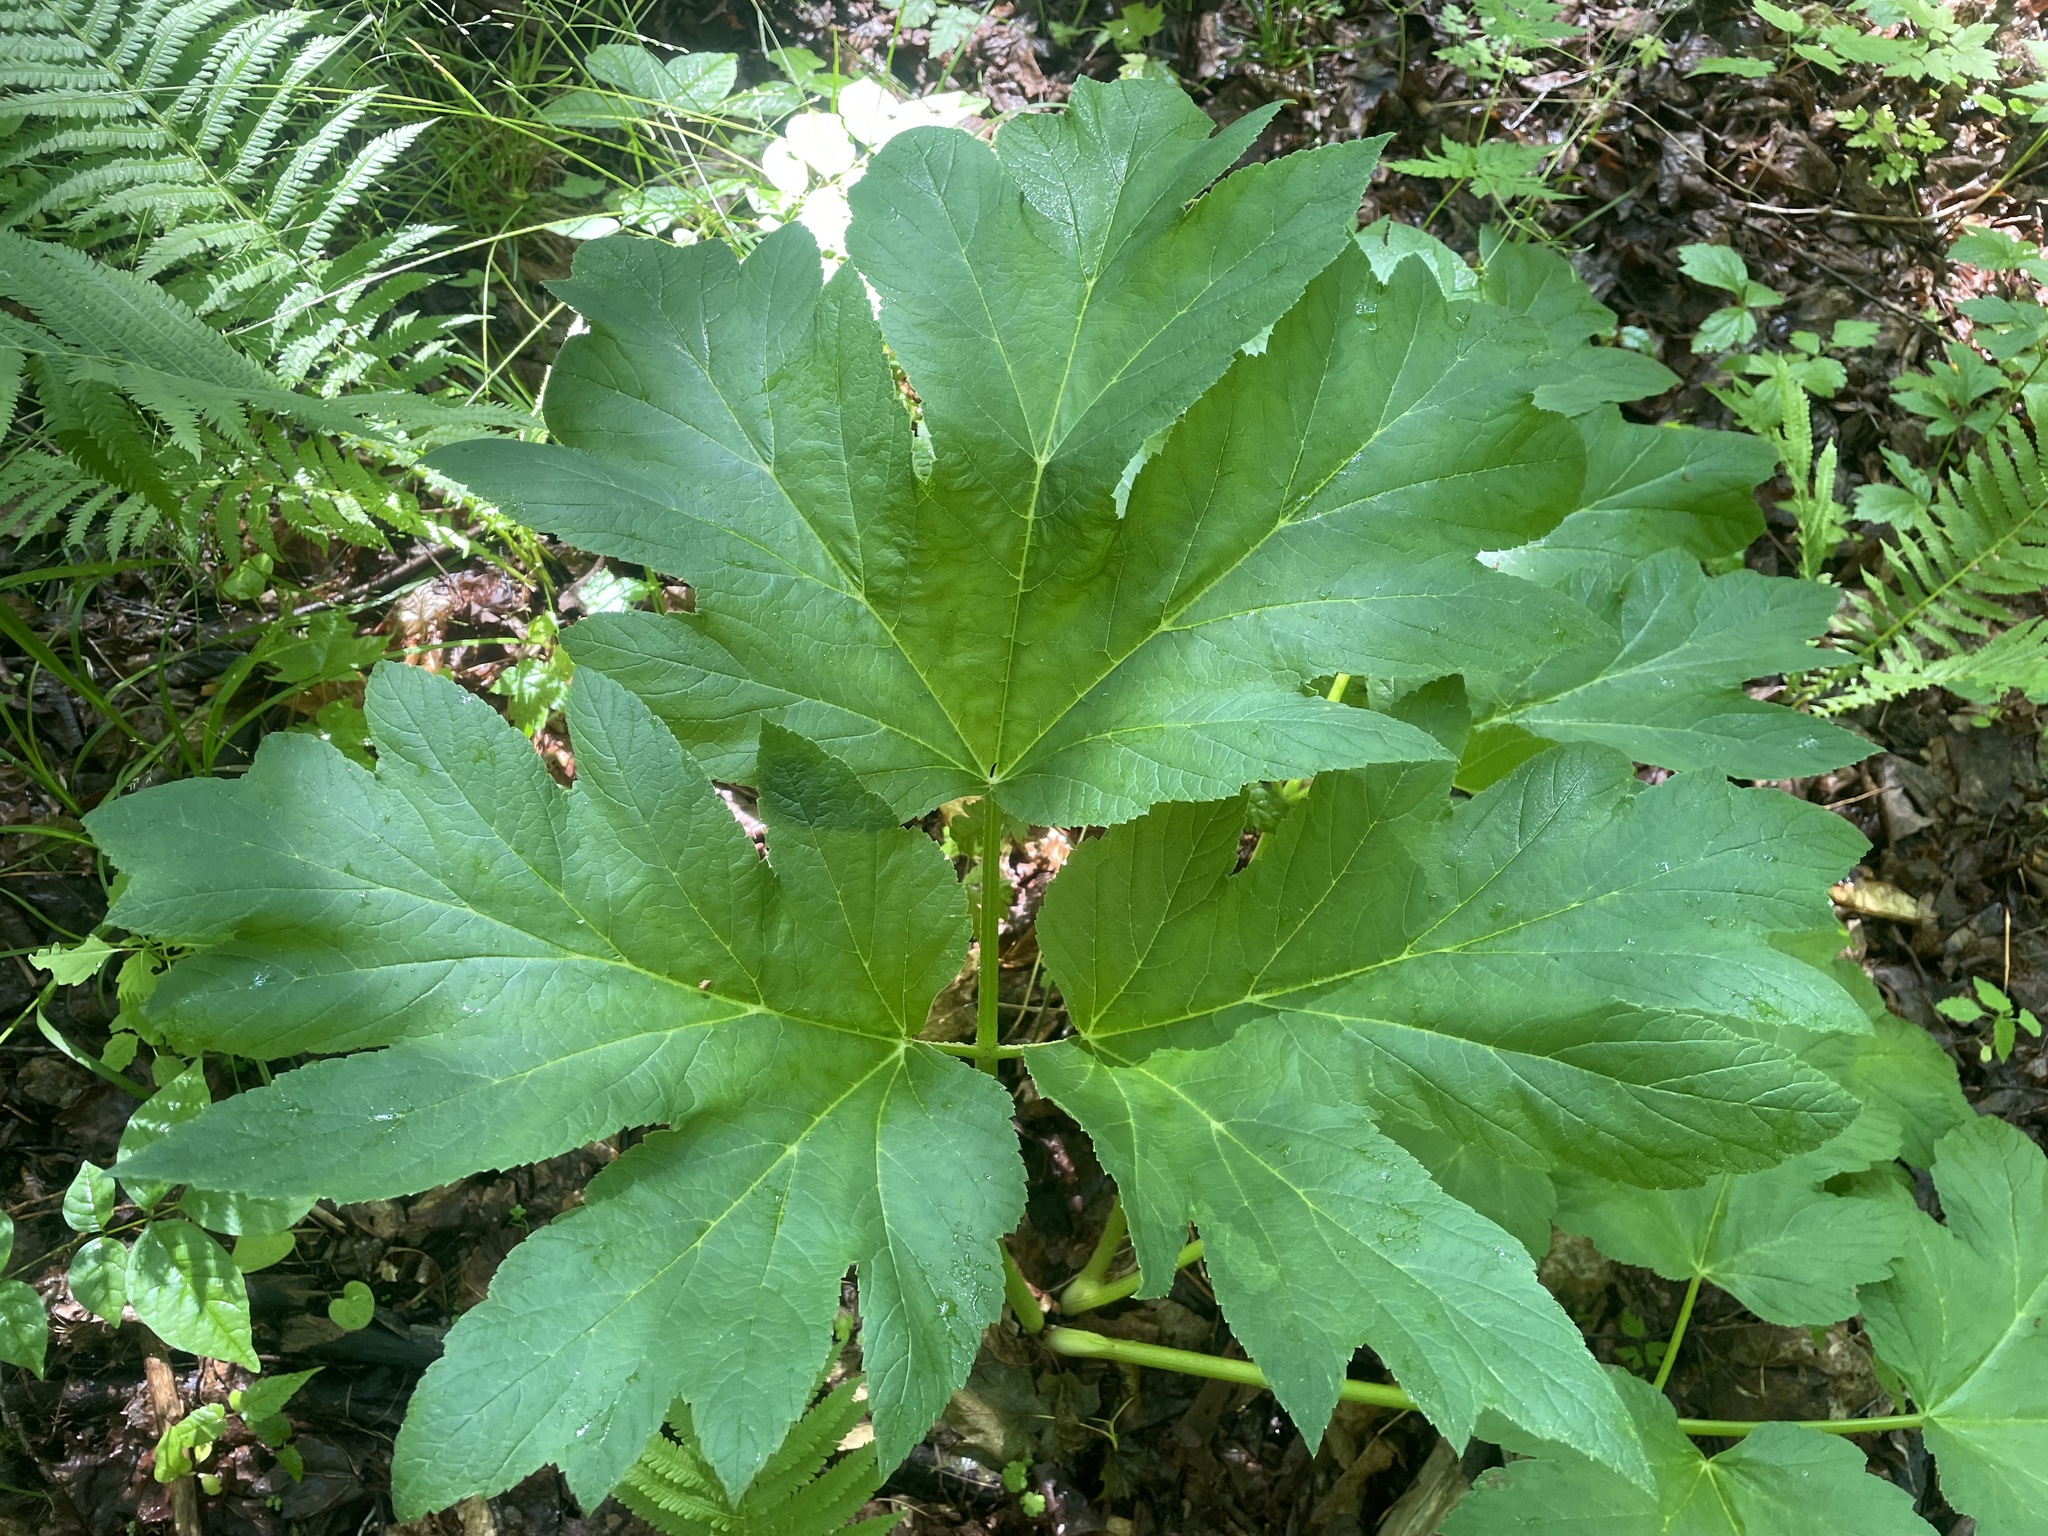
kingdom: Plantae
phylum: Tracheophyta
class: Magnoliopsida
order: Apiales
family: Apiaceae
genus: Heracleum
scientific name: Heracleum maximum
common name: American cow parsnip
